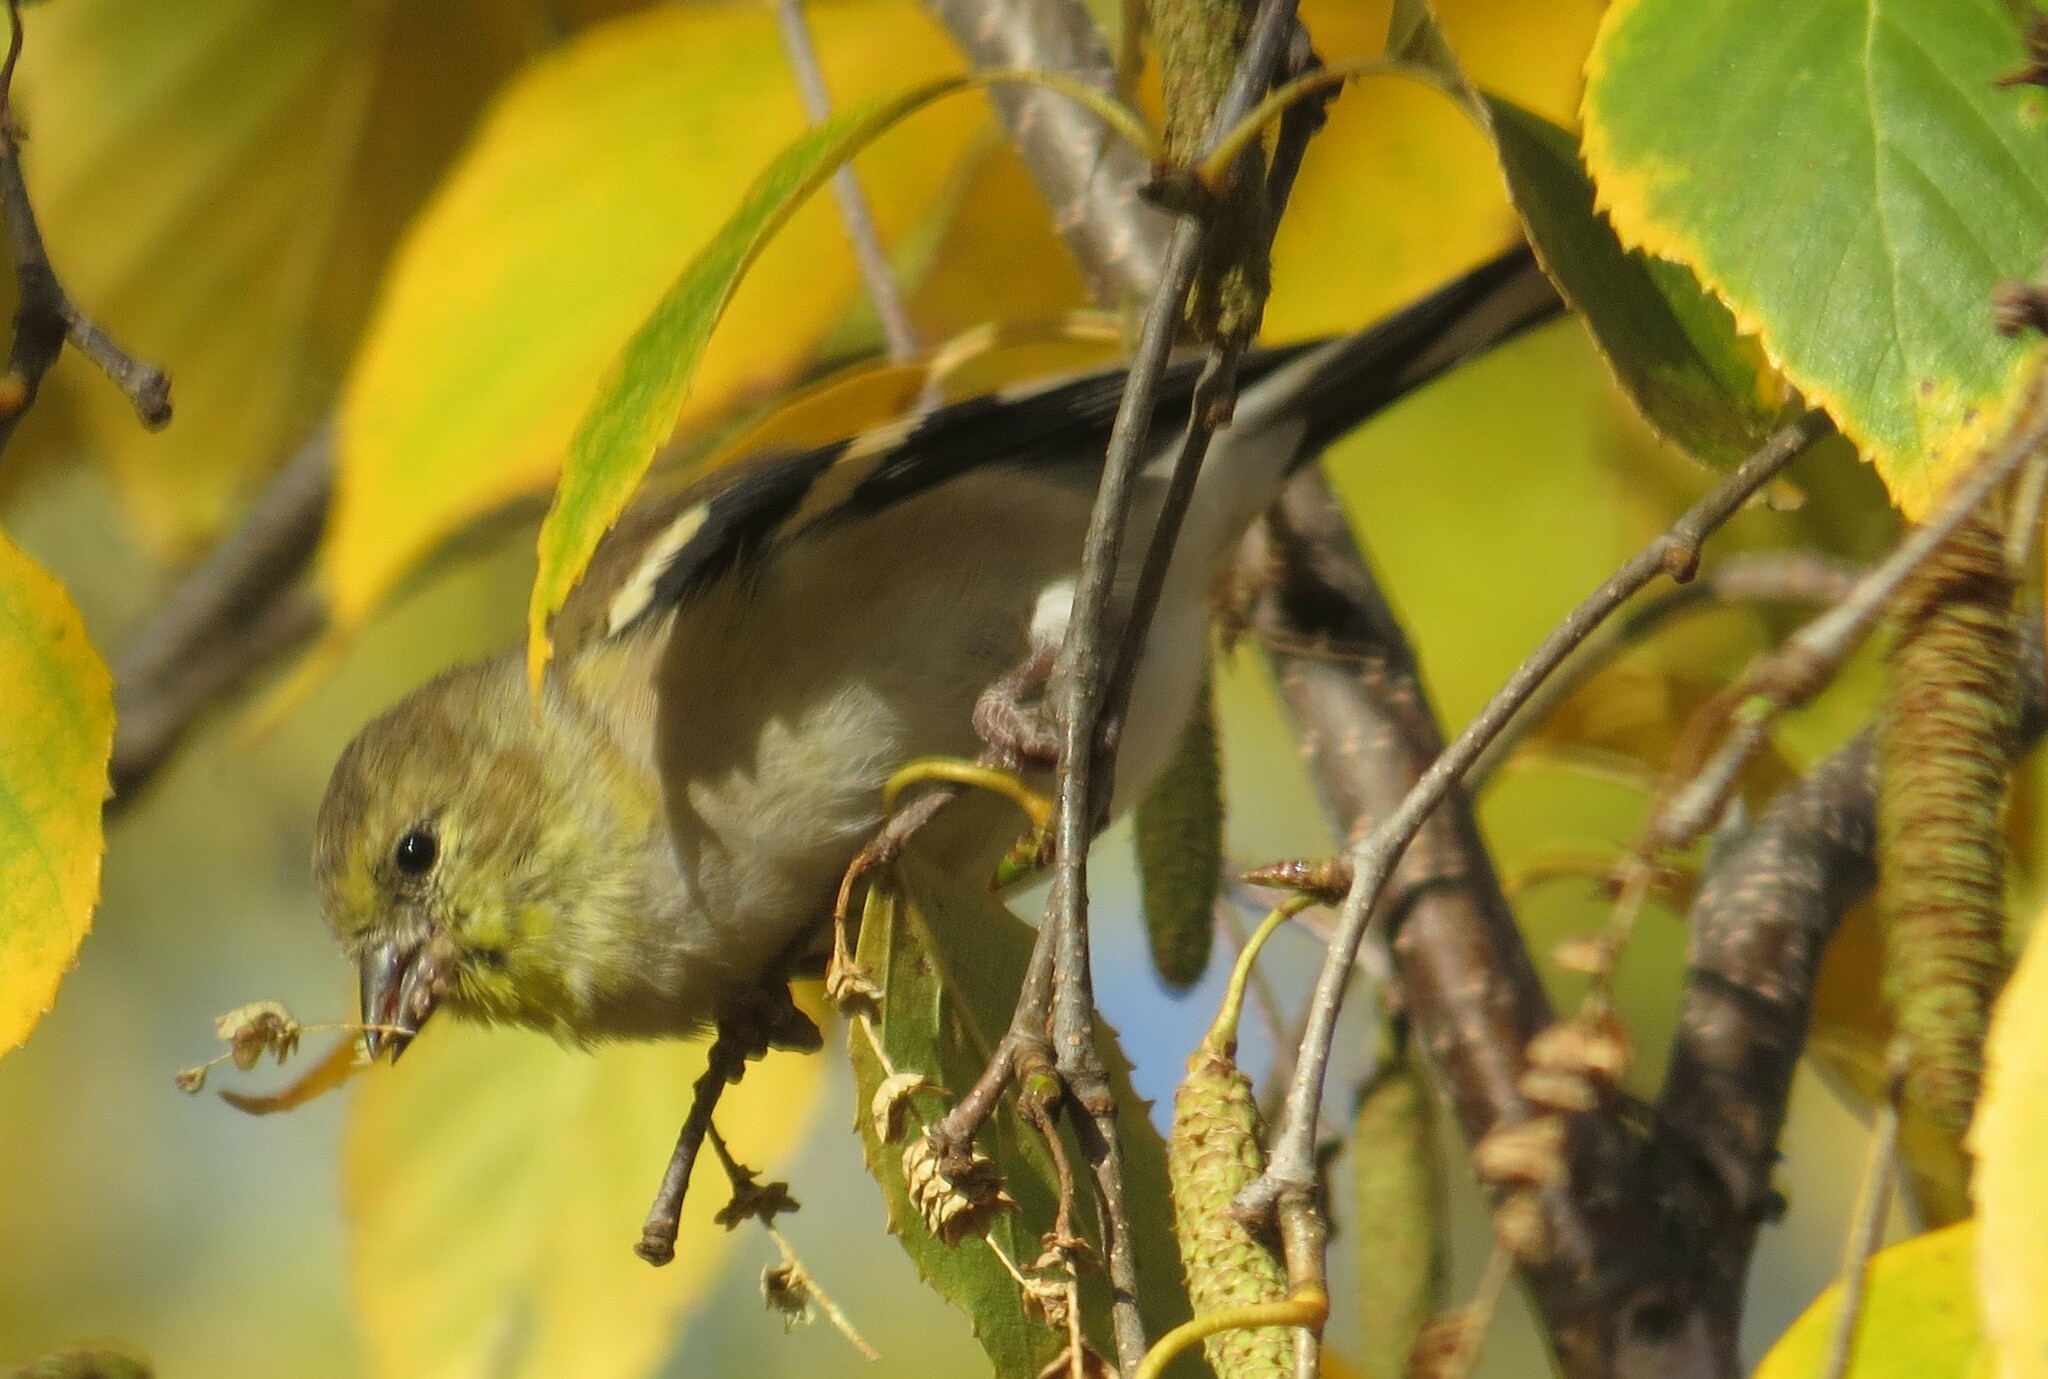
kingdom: Animalia
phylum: Chordata
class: Aves
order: Passeriformes
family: Fringillidae
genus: Spinus
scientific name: Spinus tristis
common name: American goldfinch
